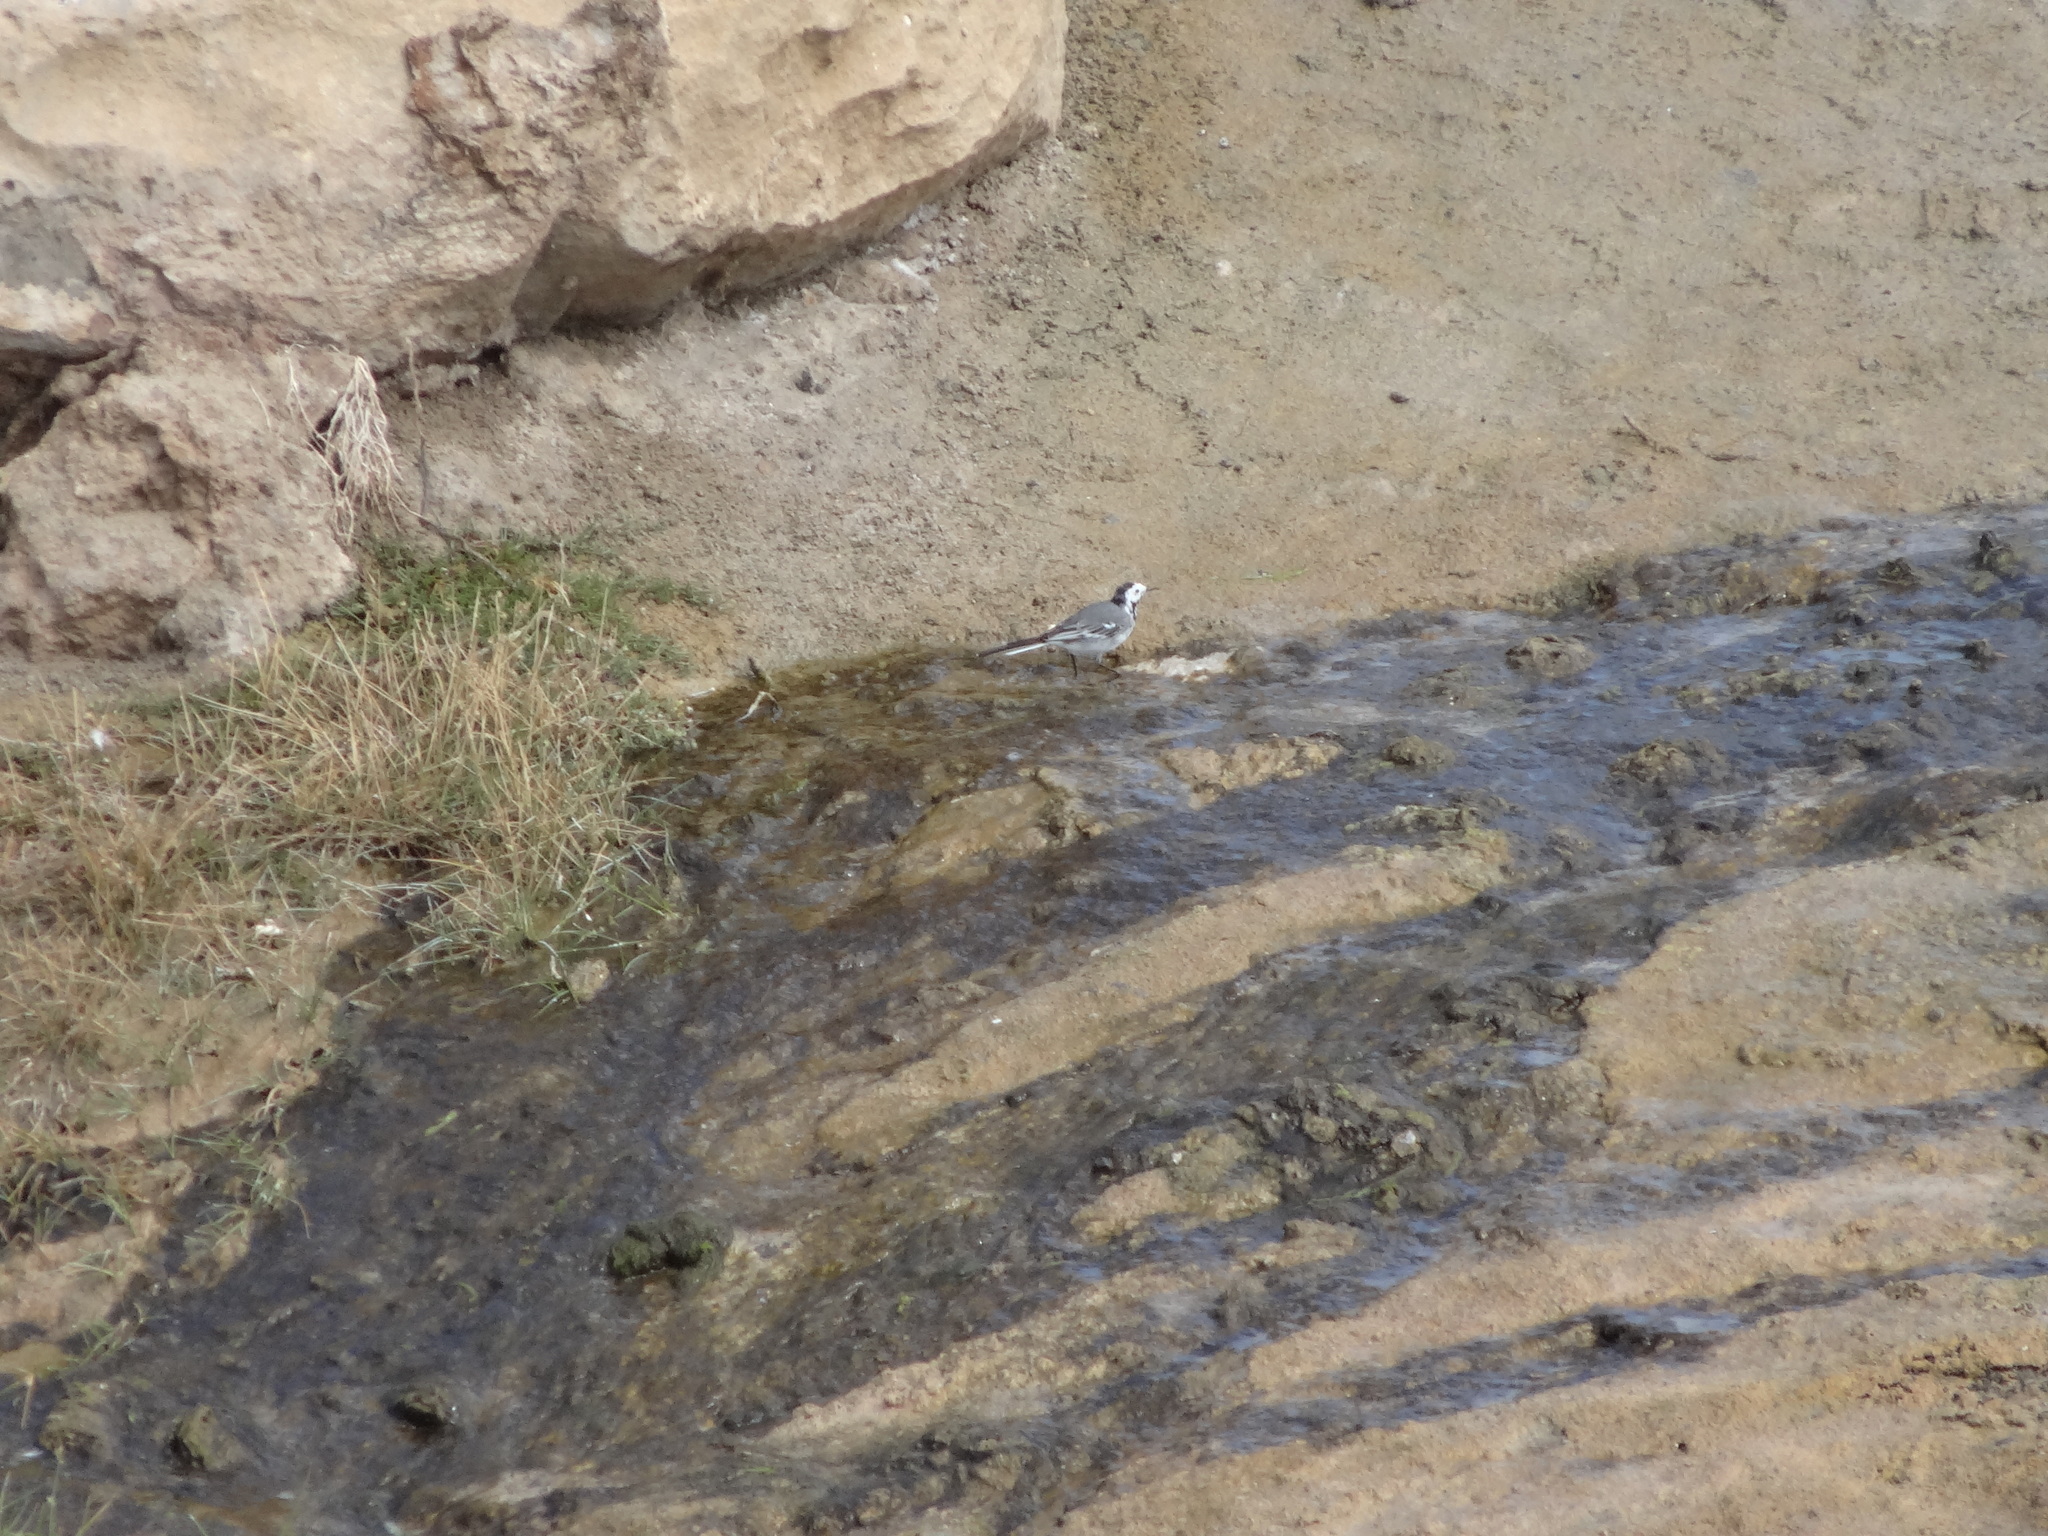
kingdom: Animalia
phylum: Chordata
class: Aves
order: Passeriformes
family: Motacillidae
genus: Motacilla
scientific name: Motacilla alba
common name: White wagtail
